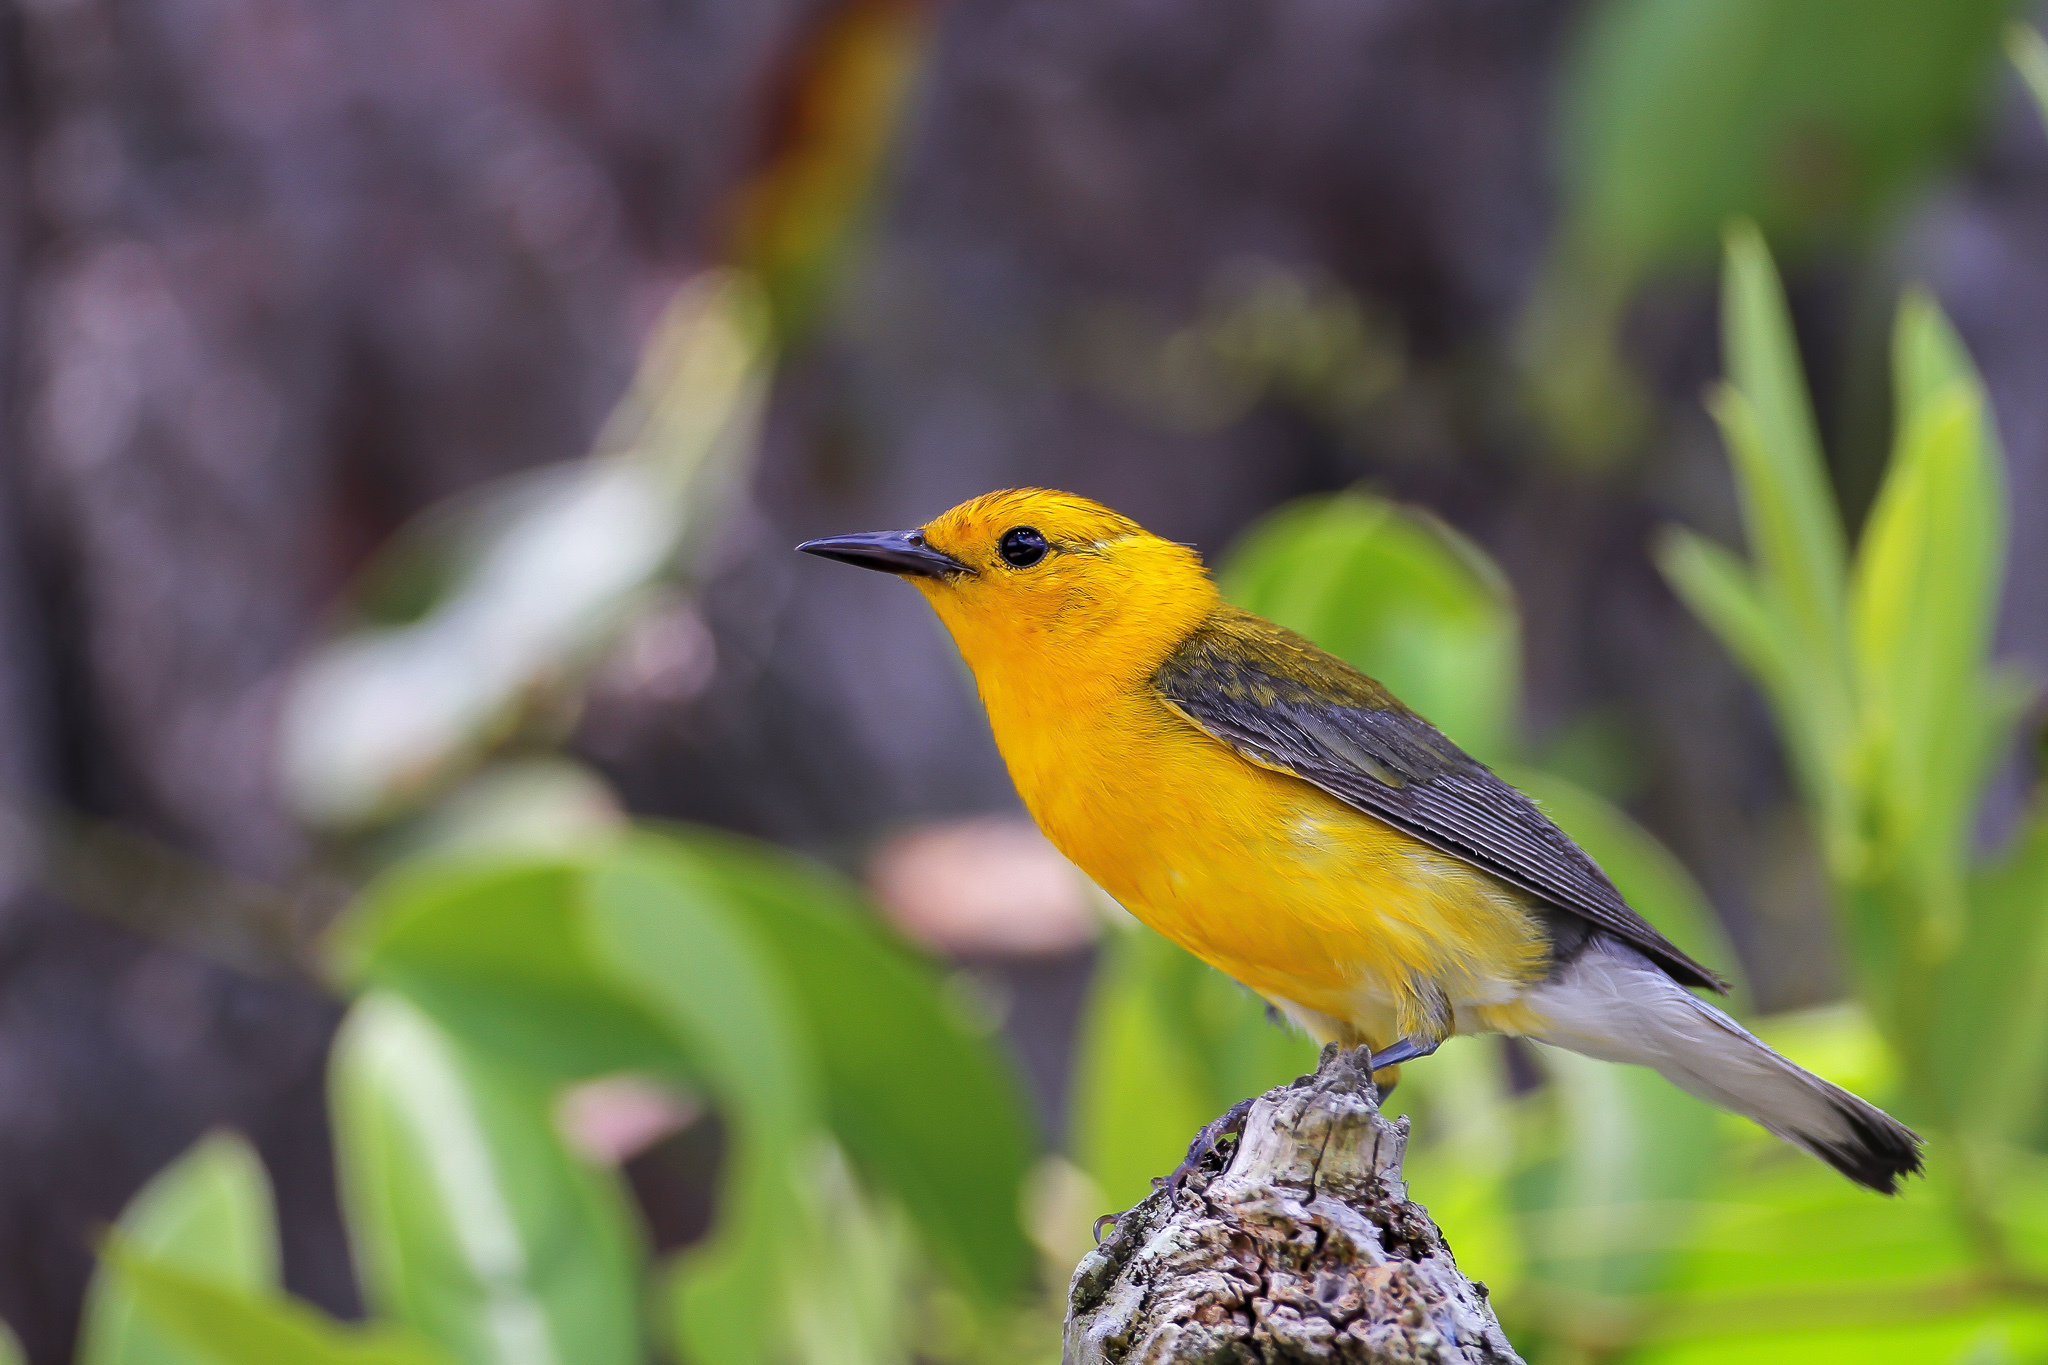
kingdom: Animalia
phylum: Chordata
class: Aves
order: Passeriformes
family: Parulidae
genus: Protonotaria
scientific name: Protonotaria citrea
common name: Prothonotary warbler
